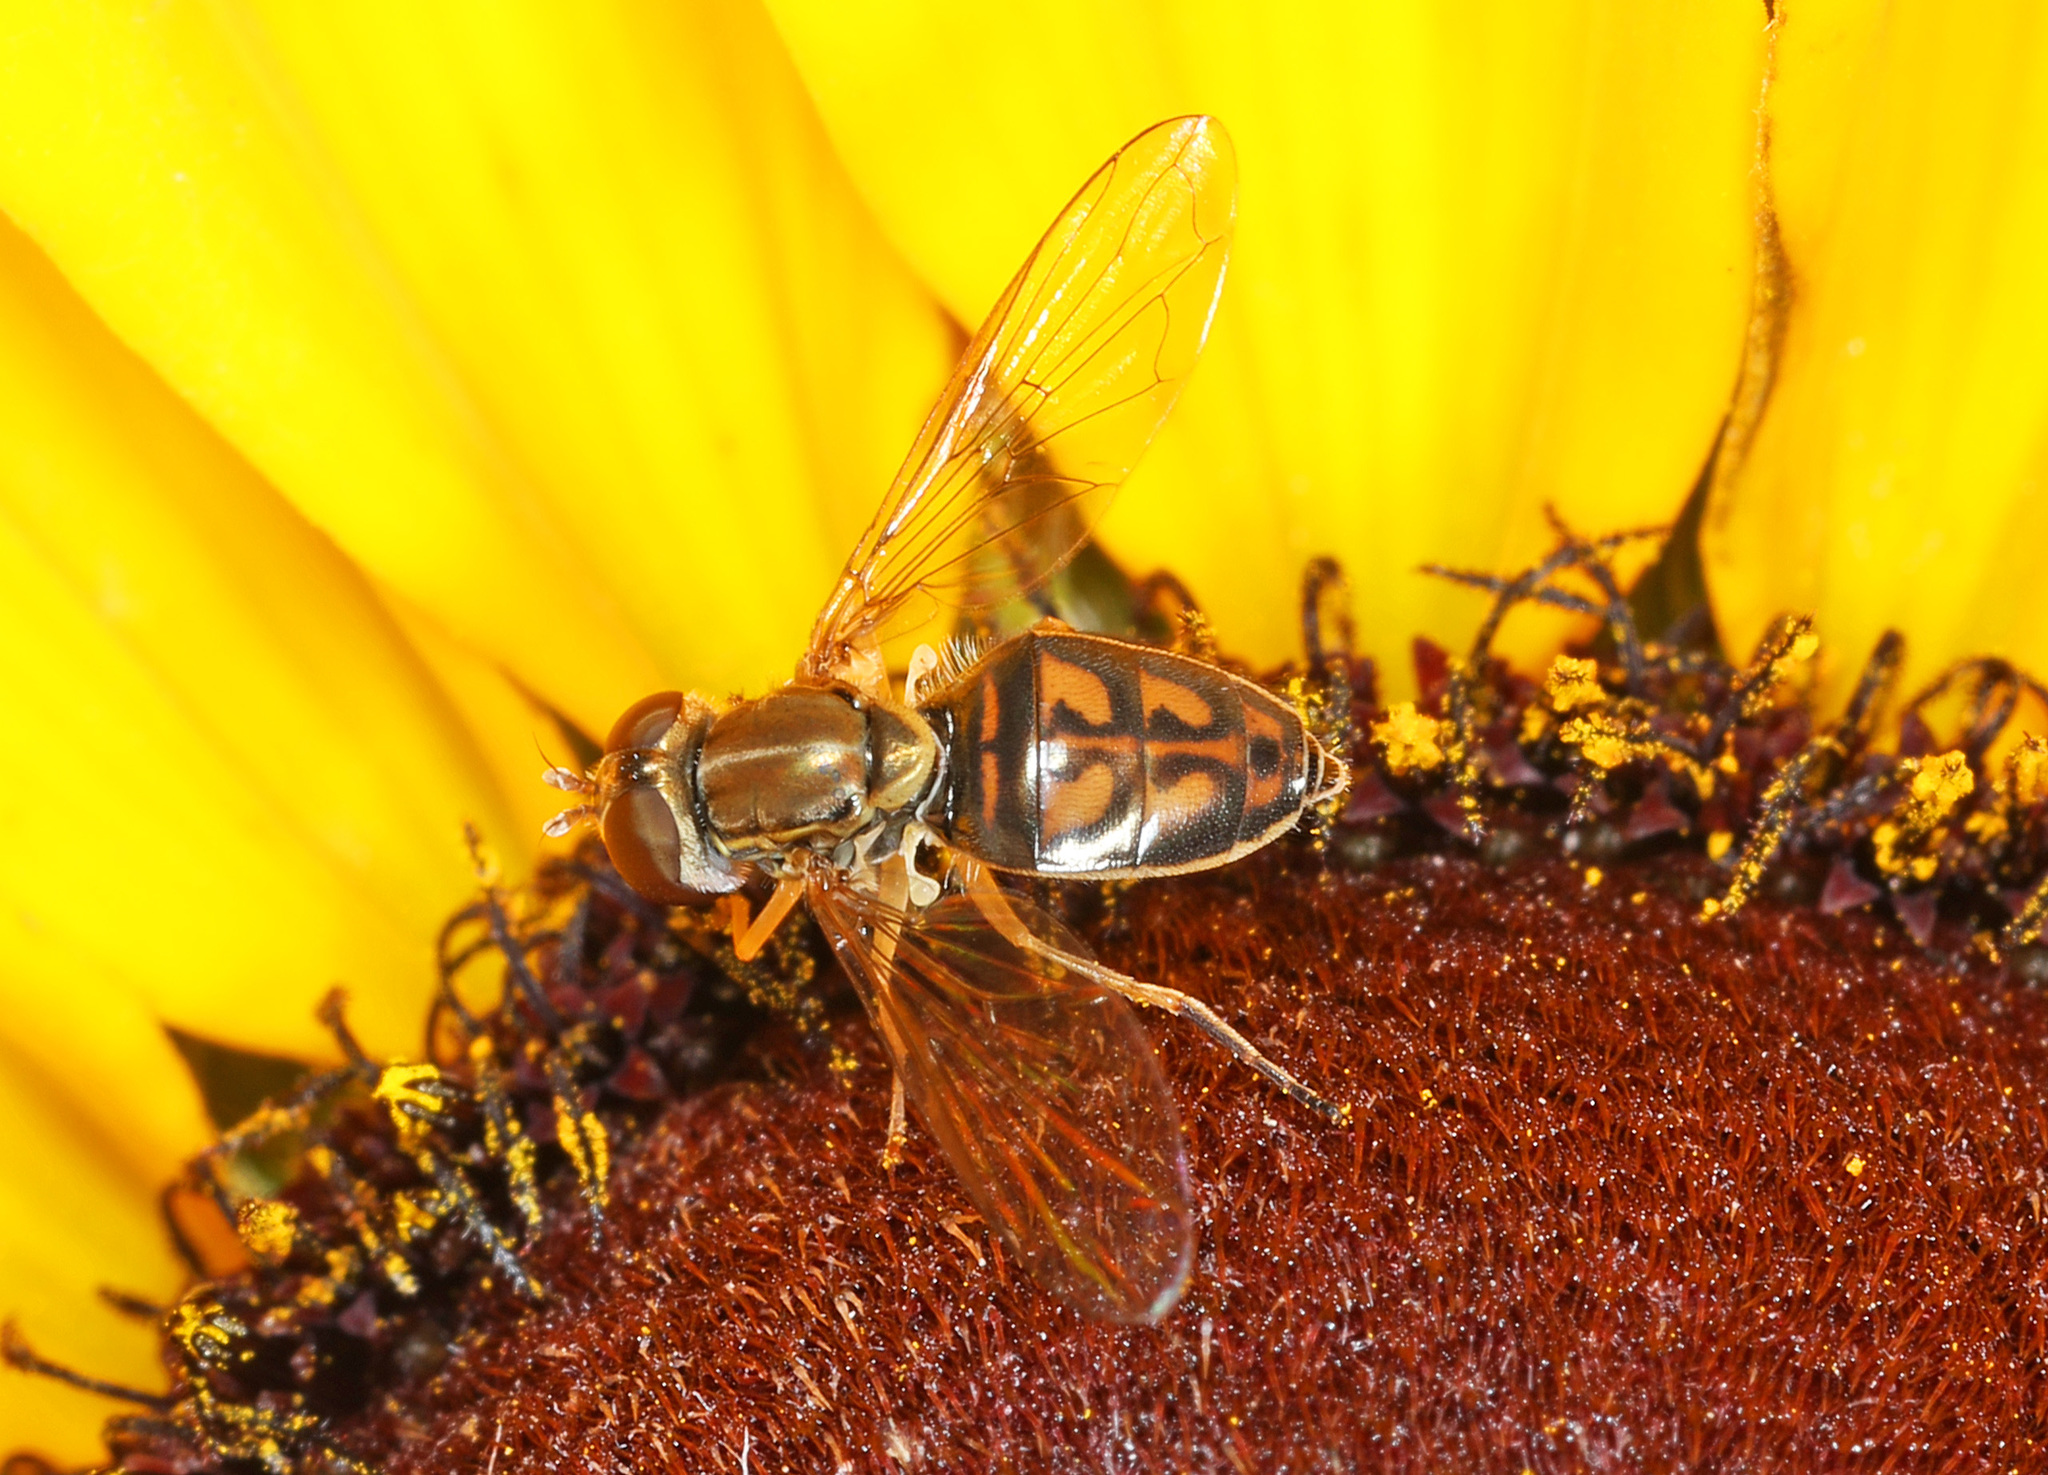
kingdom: Animalia
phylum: Arthropoda
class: Insecta
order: Diptera
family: Syrphidae
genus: Toxomerus
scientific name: Toxomerus marginatus
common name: Syrphid fly
